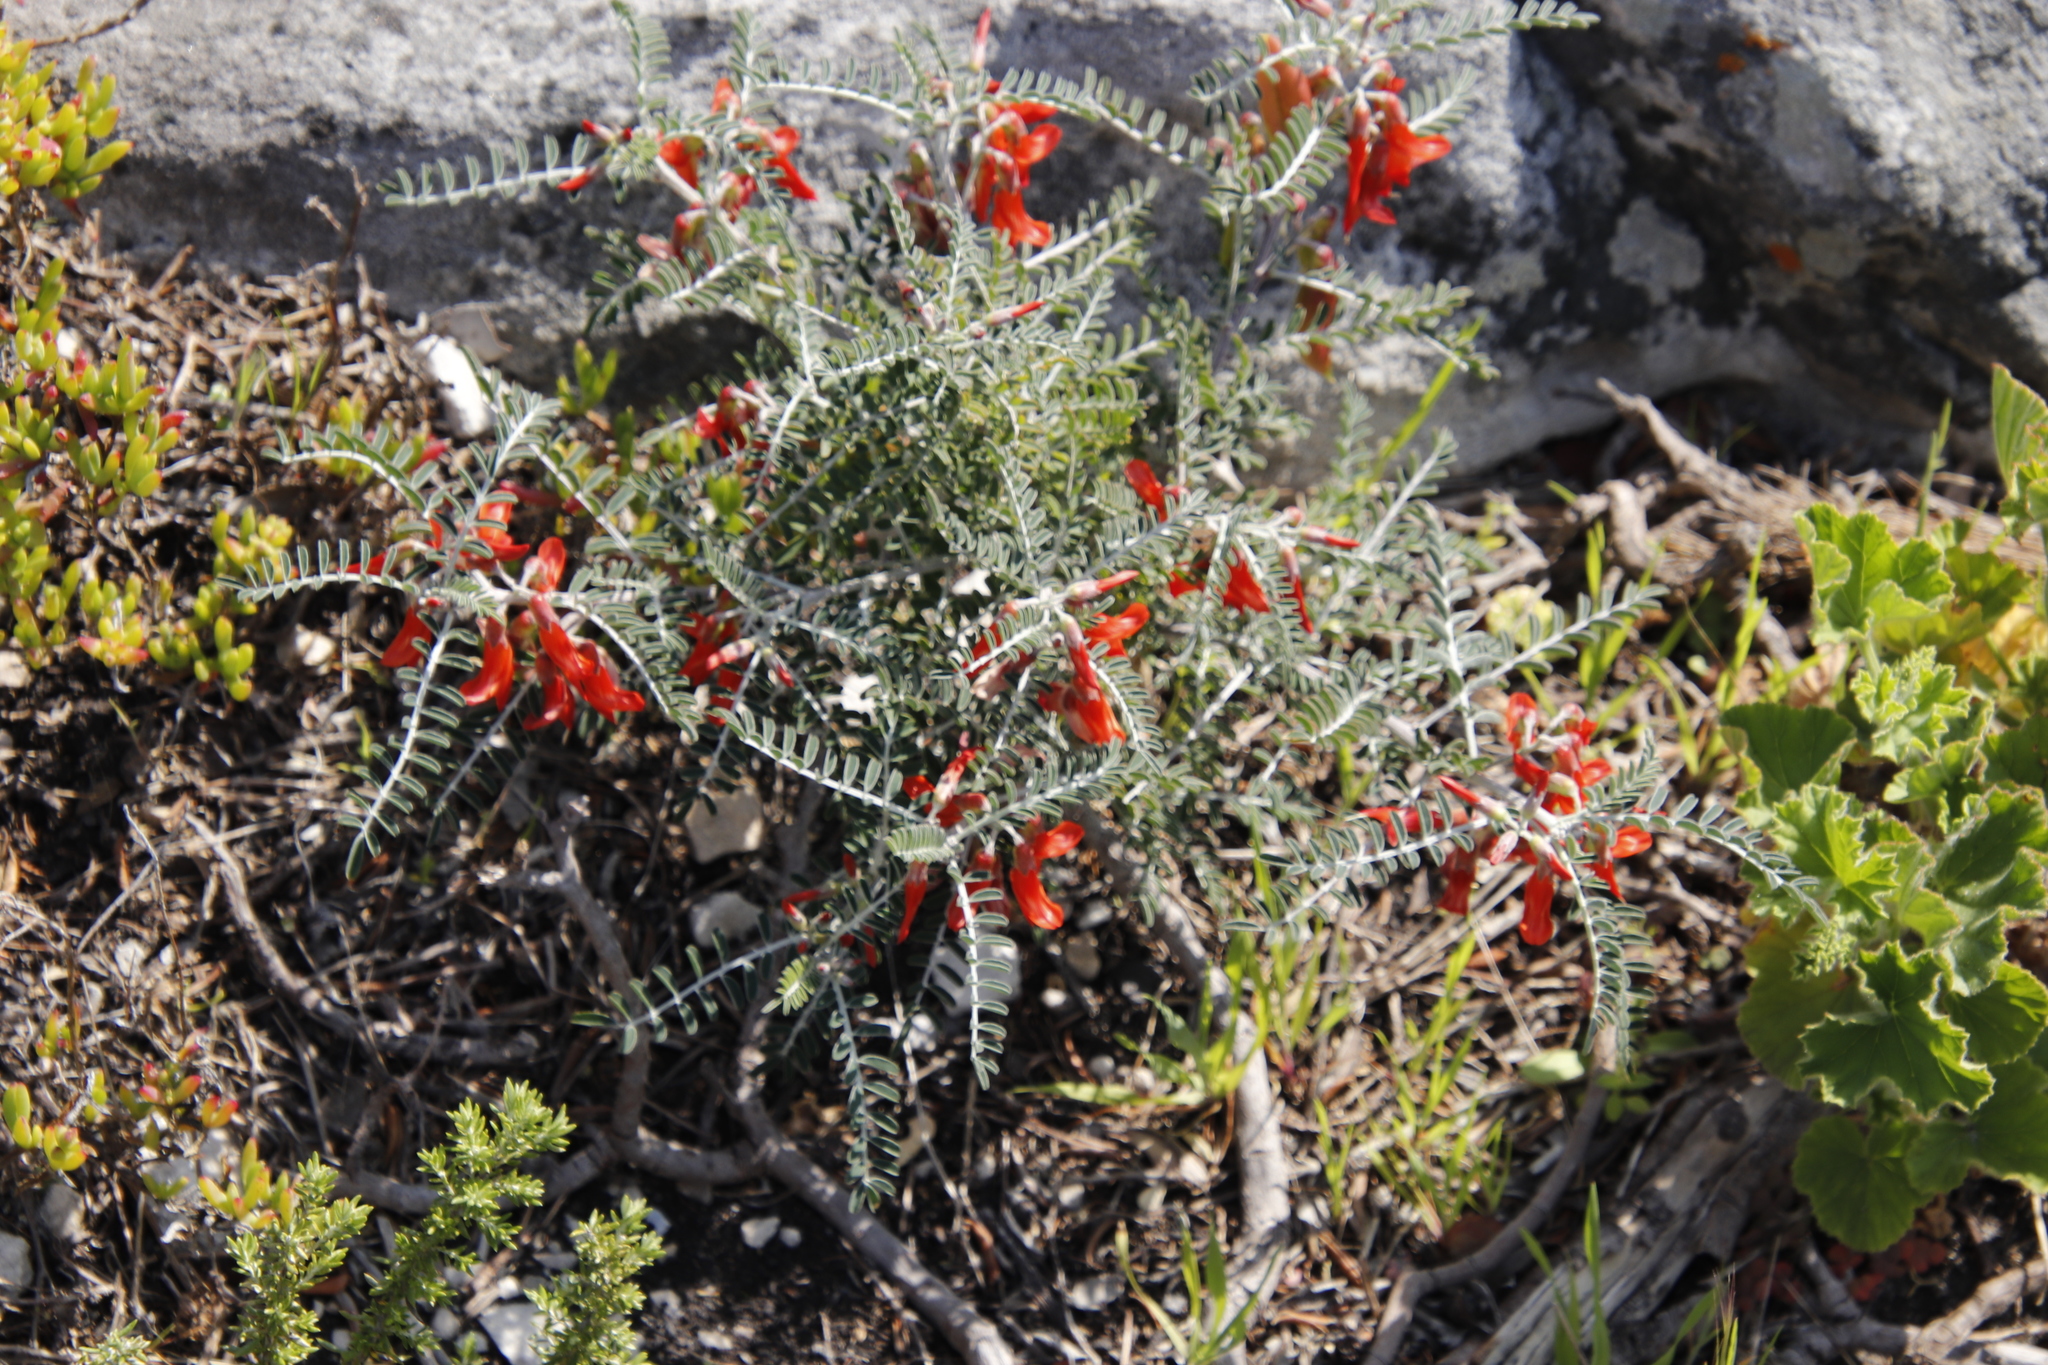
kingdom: Plantae
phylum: Tracheophyta
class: Magnoliopsida
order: Fabales
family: Fabaceae
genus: Lessertia
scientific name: Lessertia frutescens
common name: Balloon-pea
